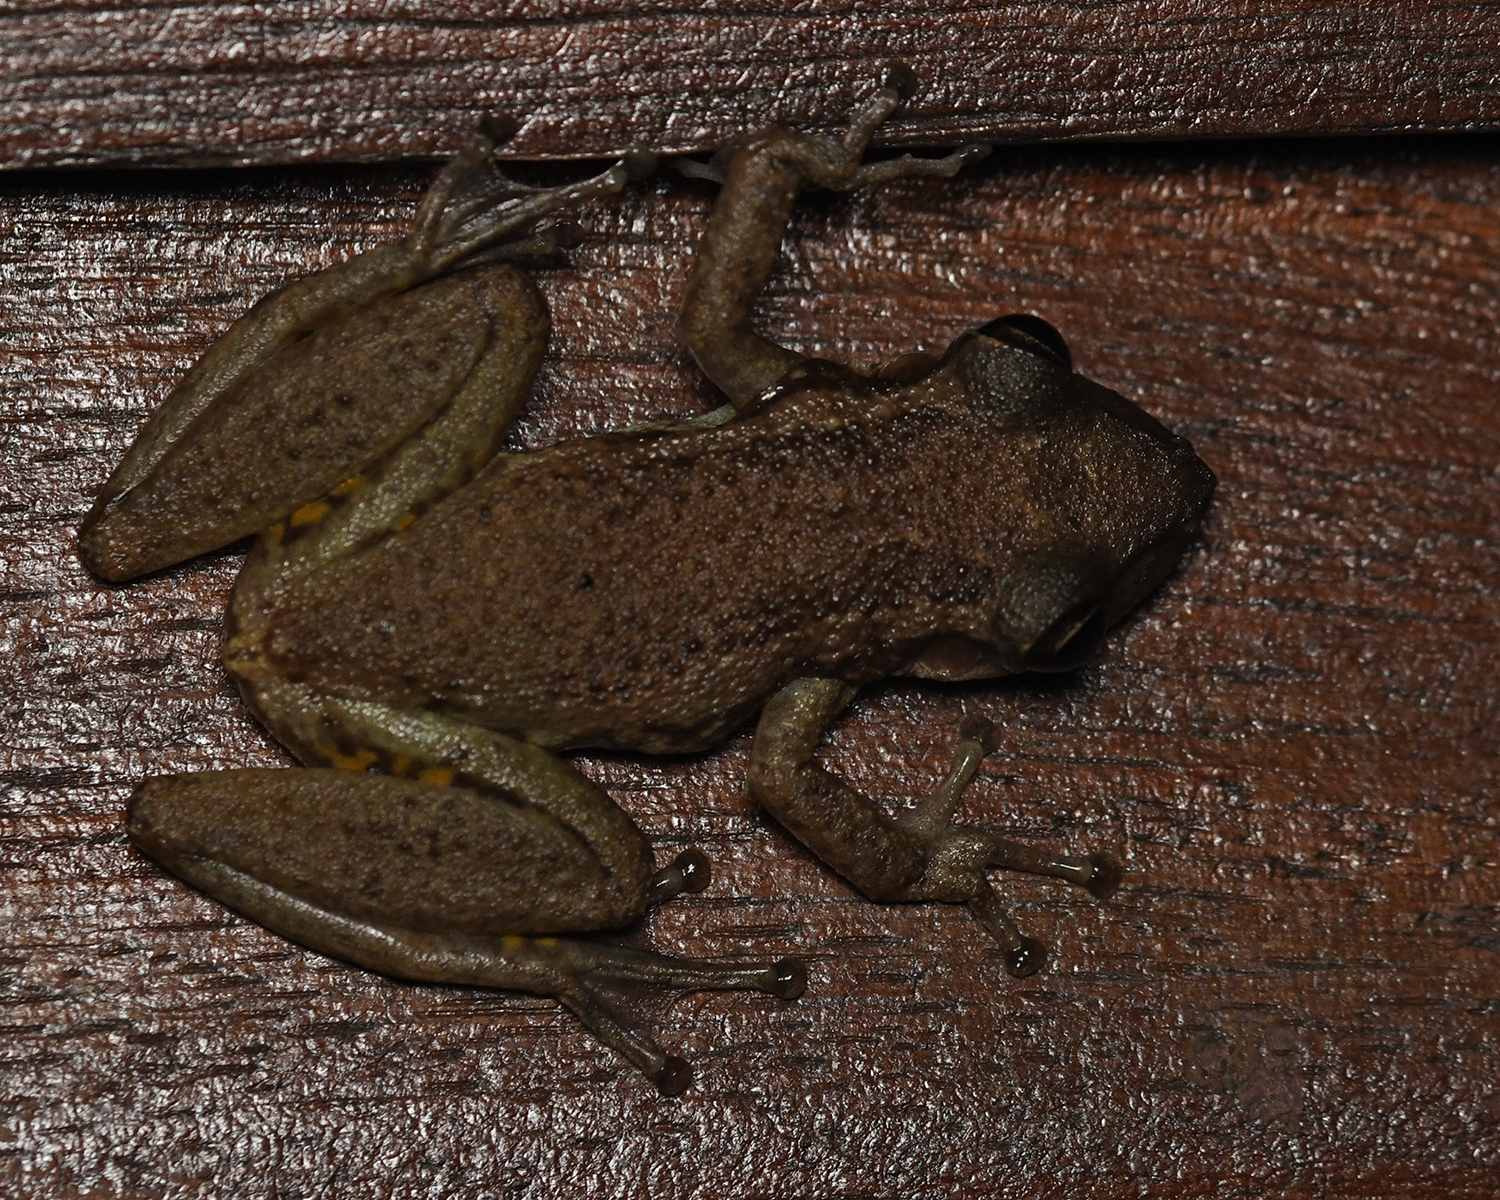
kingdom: Animalia
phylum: Chordata
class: Amphibia
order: Anura
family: Hylidae
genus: Scinax
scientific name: Scinax ruber
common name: Red snouted treefrog
